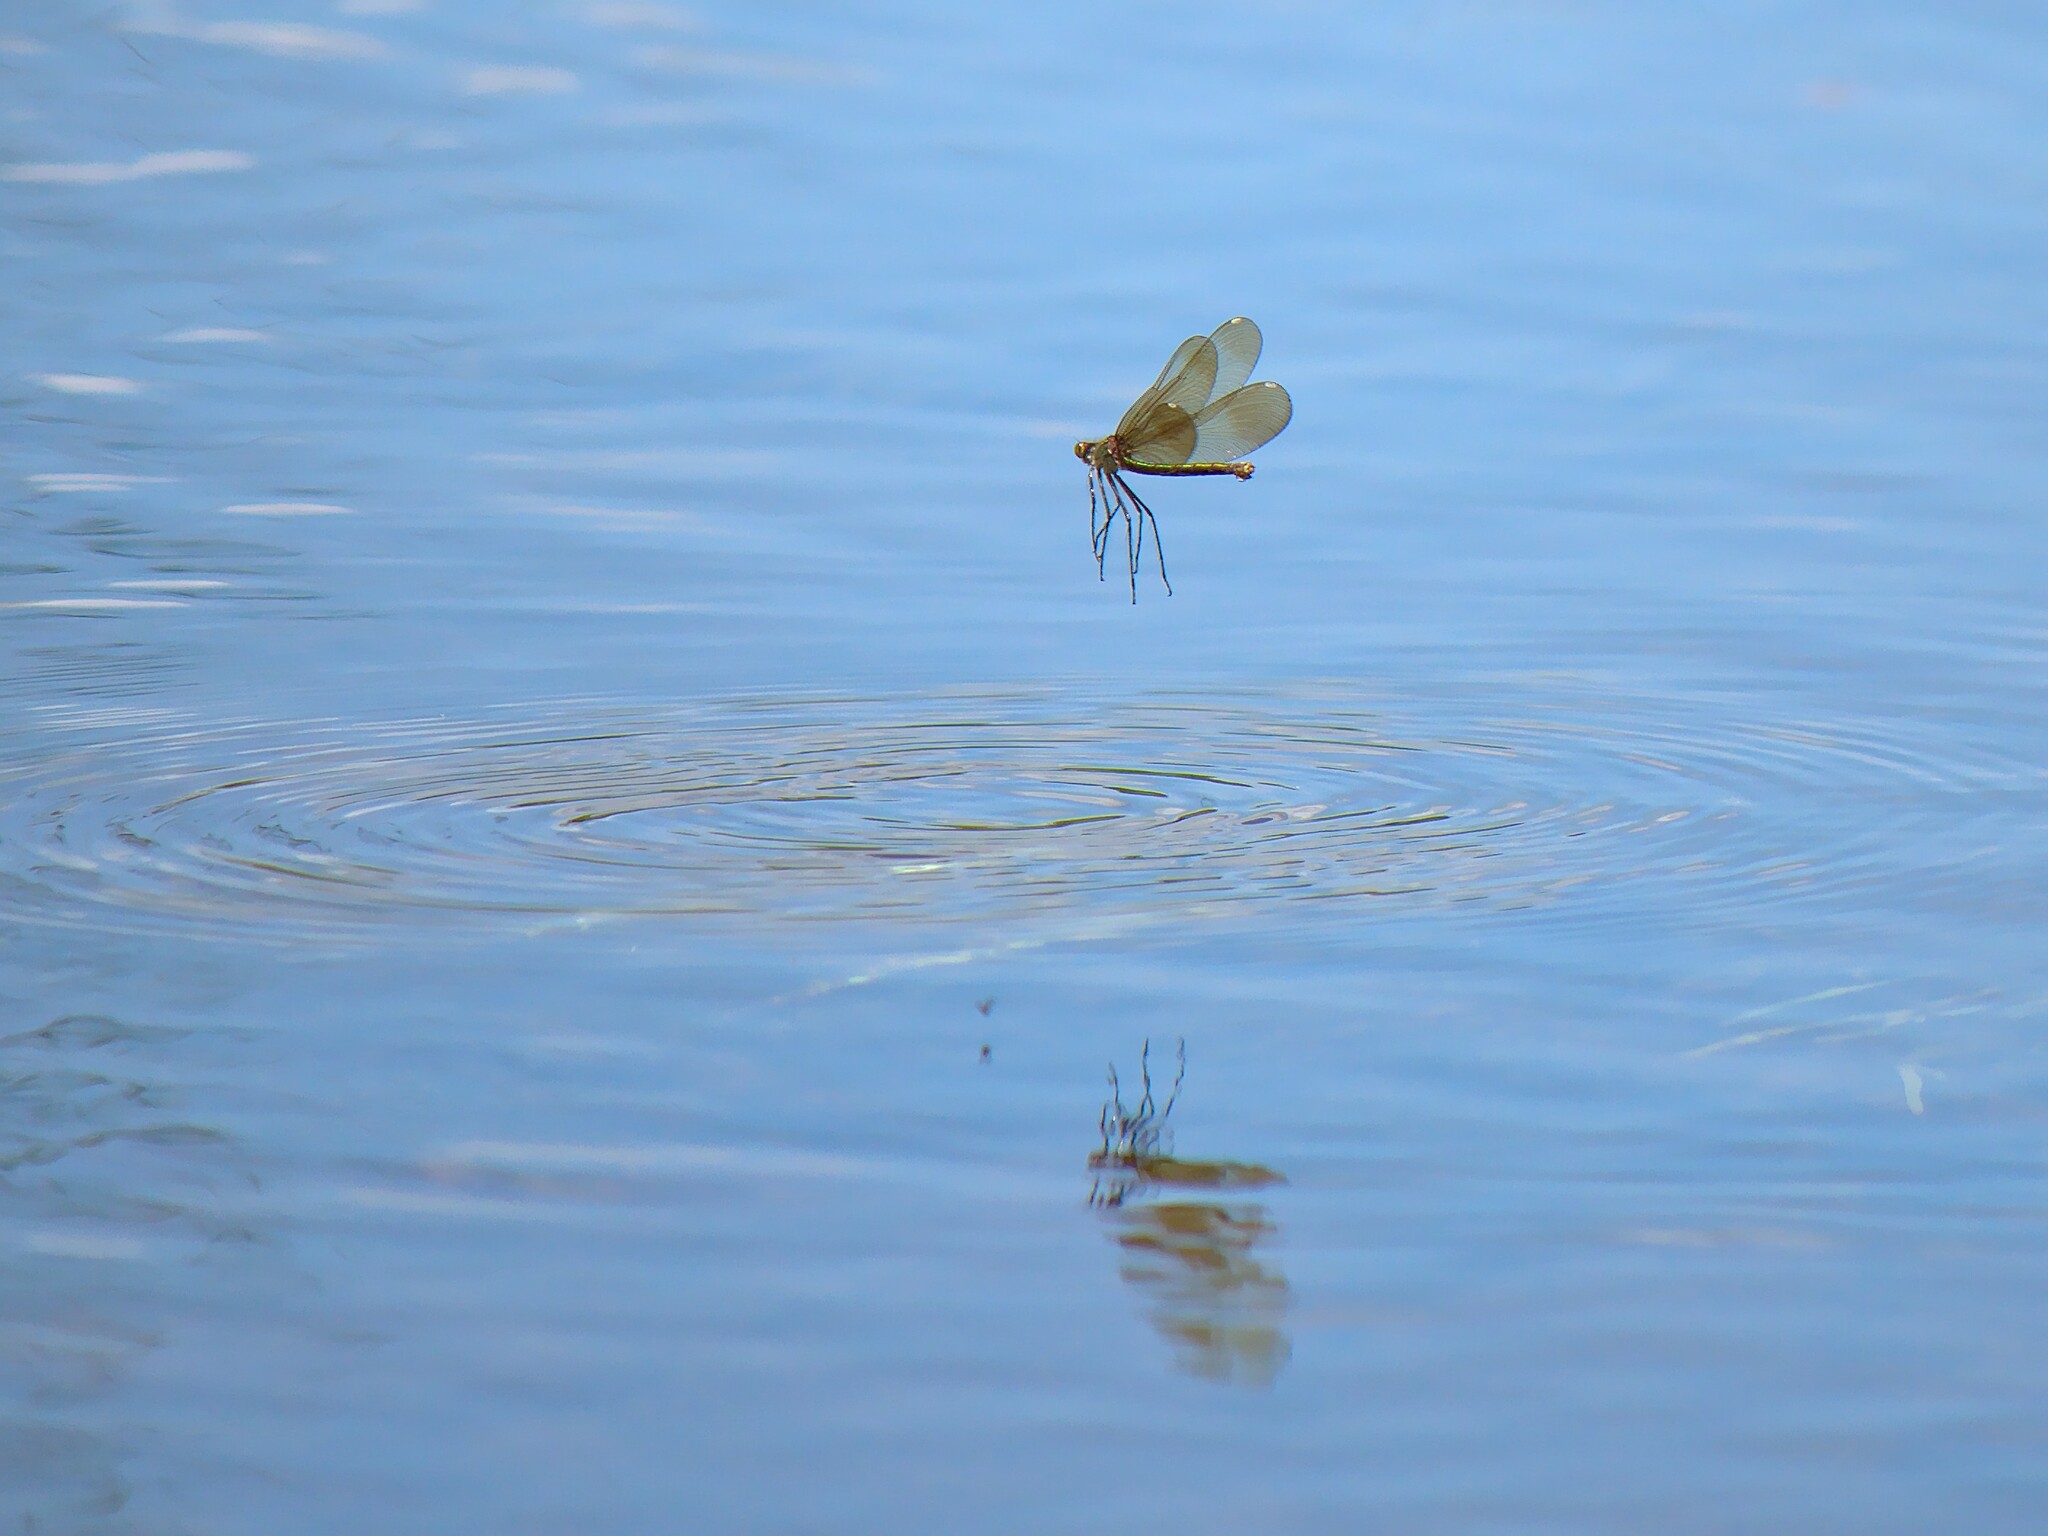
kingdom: Animalia
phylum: Arthropoda
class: Insecta
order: Odonata
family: Calopterygidae
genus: Calopteryx
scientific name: Calopteryx aequabilis
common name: River jewelwing
